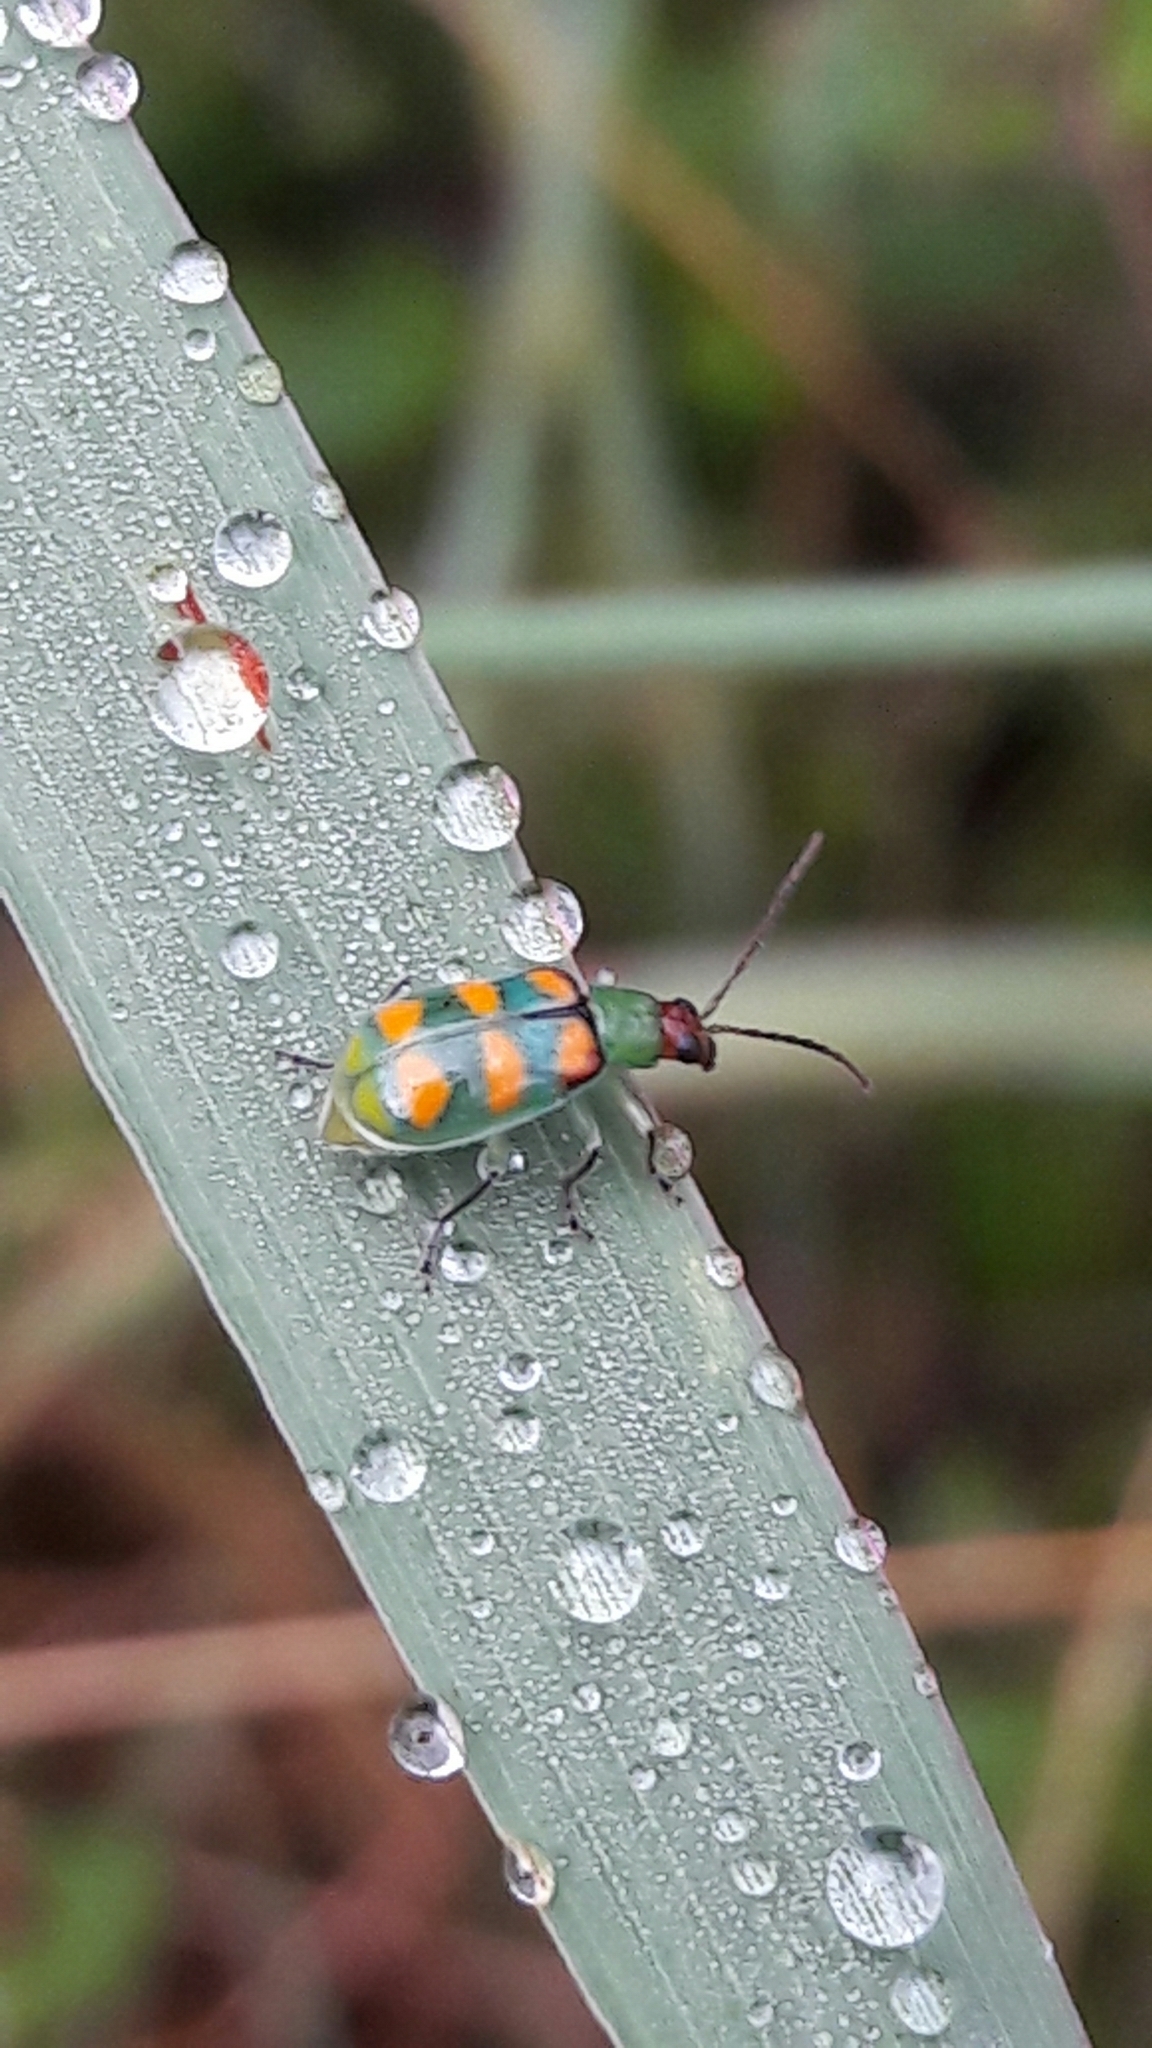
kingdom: Animalia
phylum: Arthropoda
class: Insecta
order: Coleoptera
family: Chrysomelidae
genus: Diabrotica
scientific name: Diabrotica speciosa
